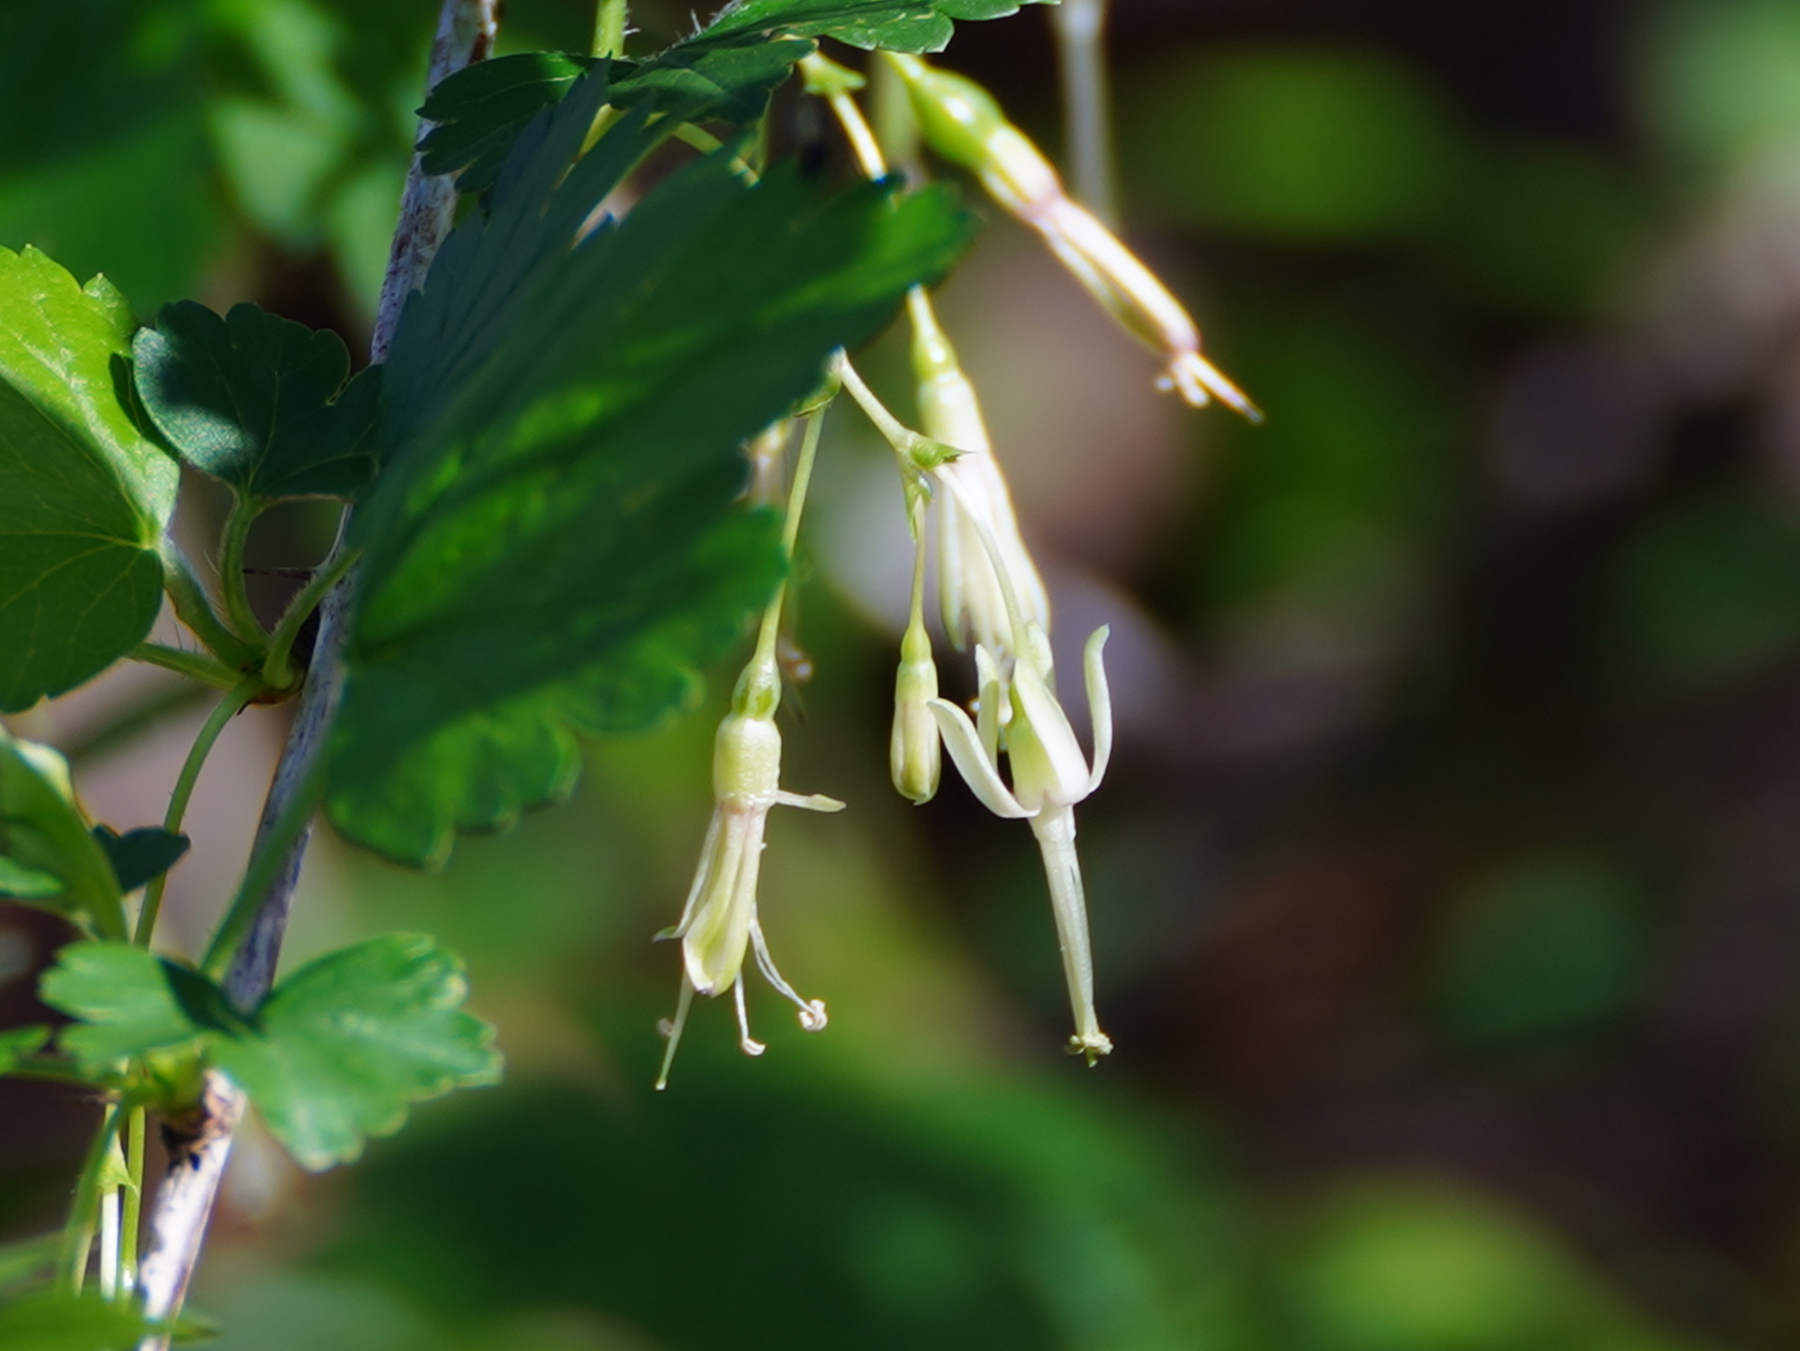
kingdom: Plantae
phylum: Tracheophyta
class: Magnoliopsida
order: Saxifragales
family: Grossulariaceae
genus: Ribes
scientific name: Ribes missouriense
